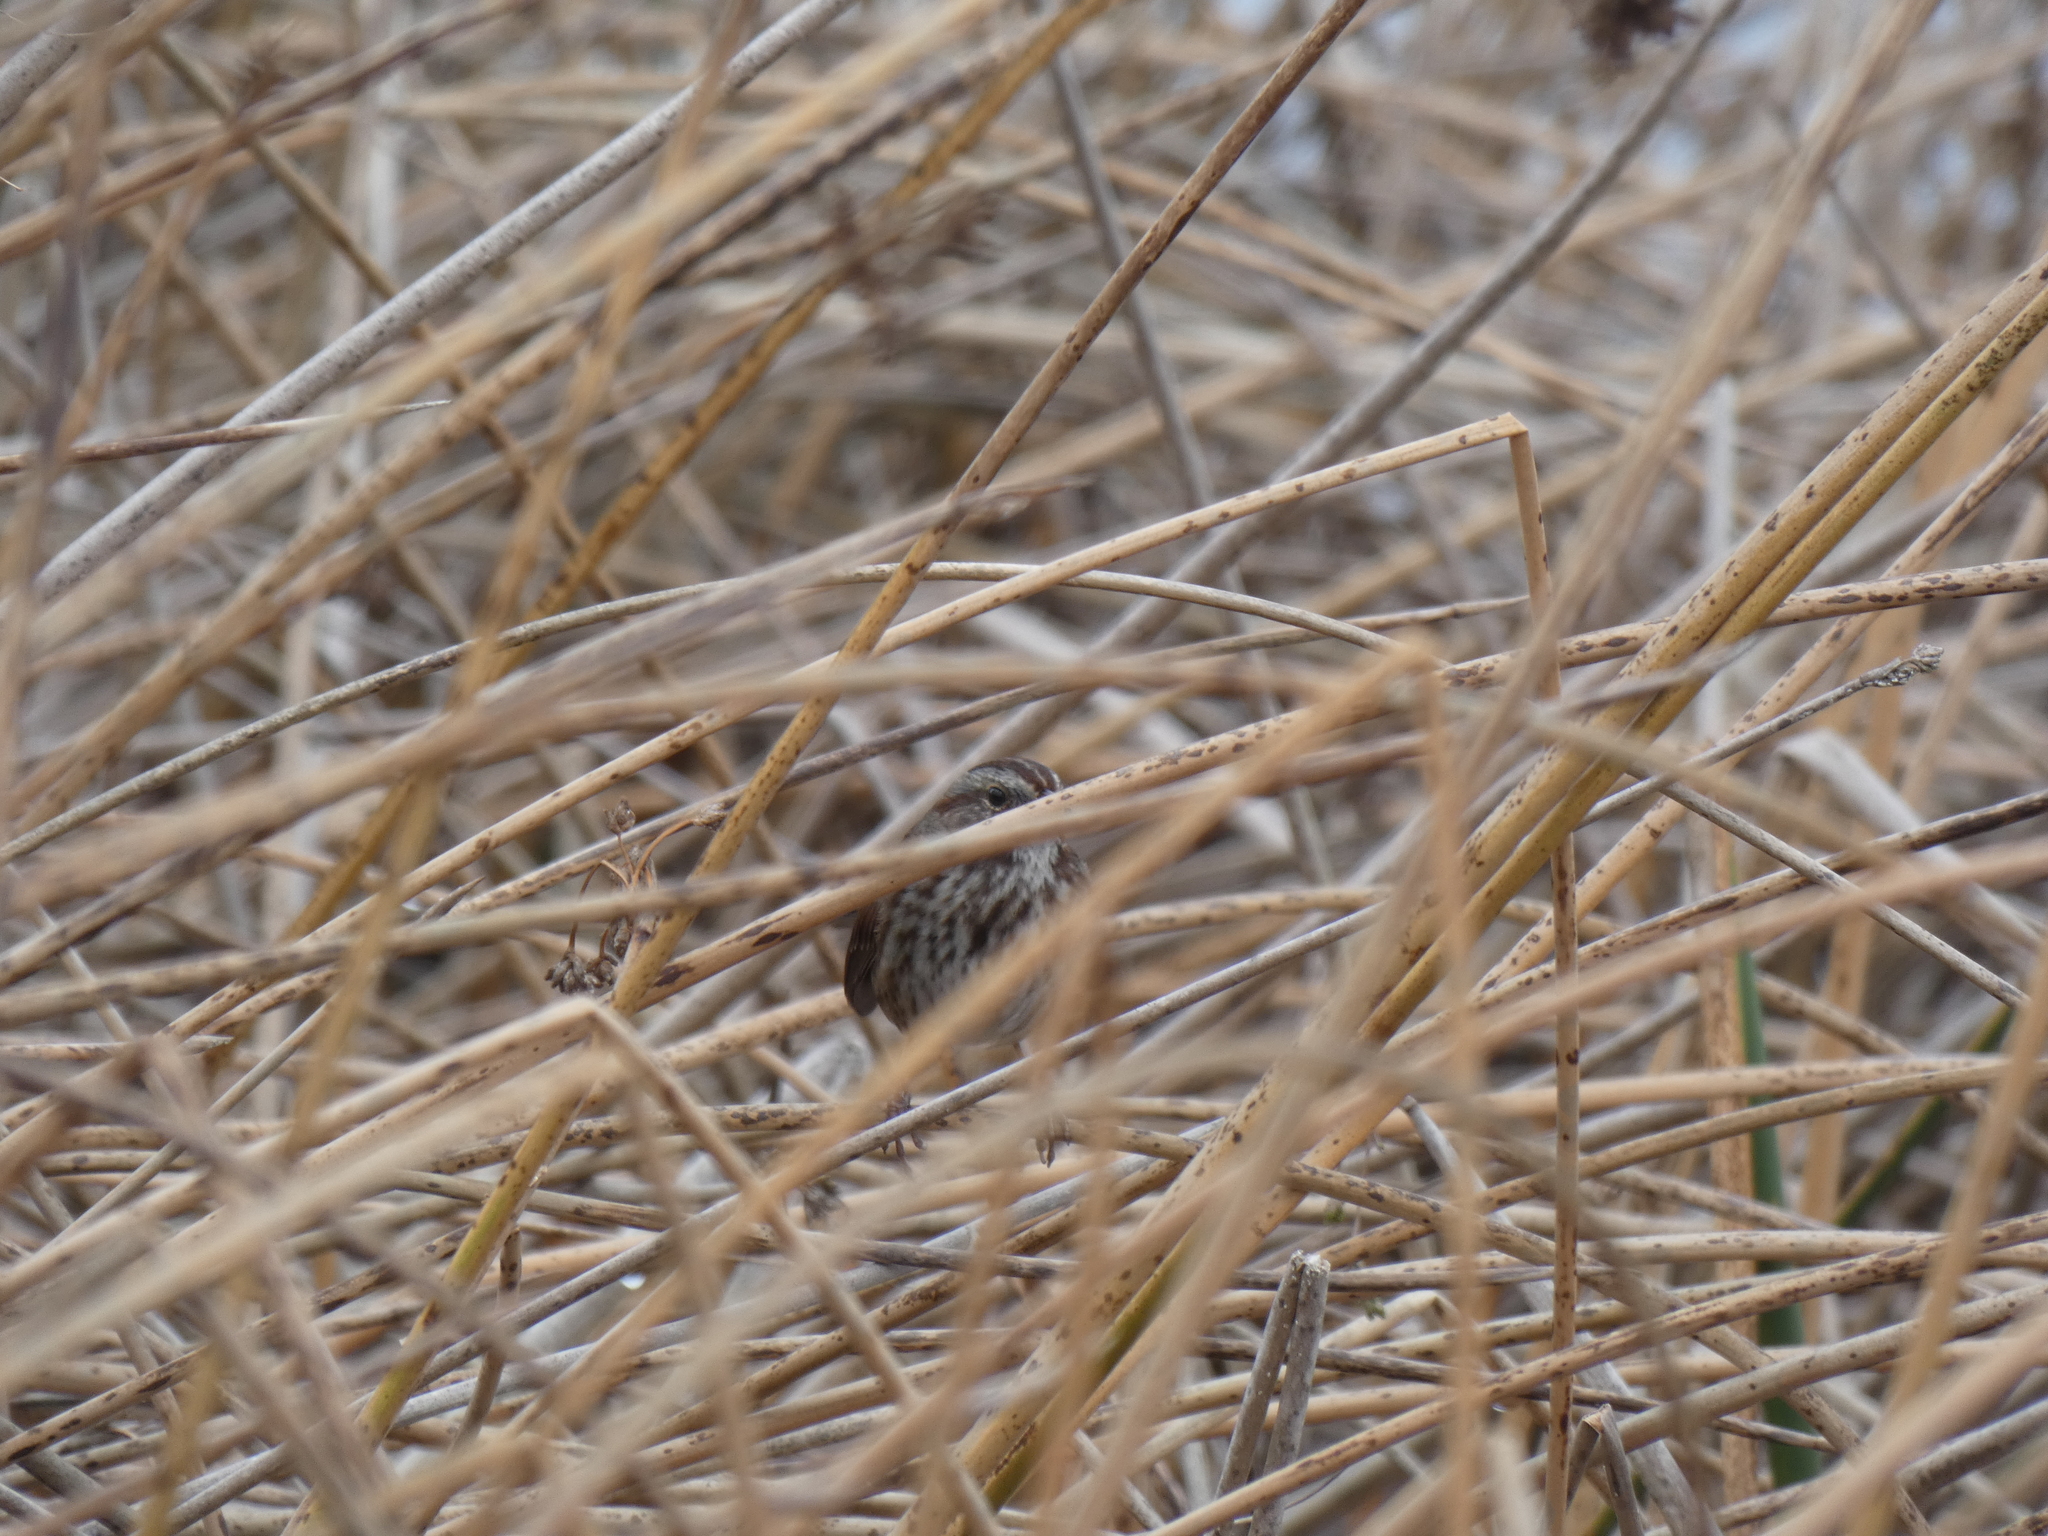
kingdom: Animalia
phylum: Chordata
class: Aves
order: Passeriformes
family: Passerellidae
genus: Melospiza
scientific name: Melospiza melodia
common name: Song sparrow
